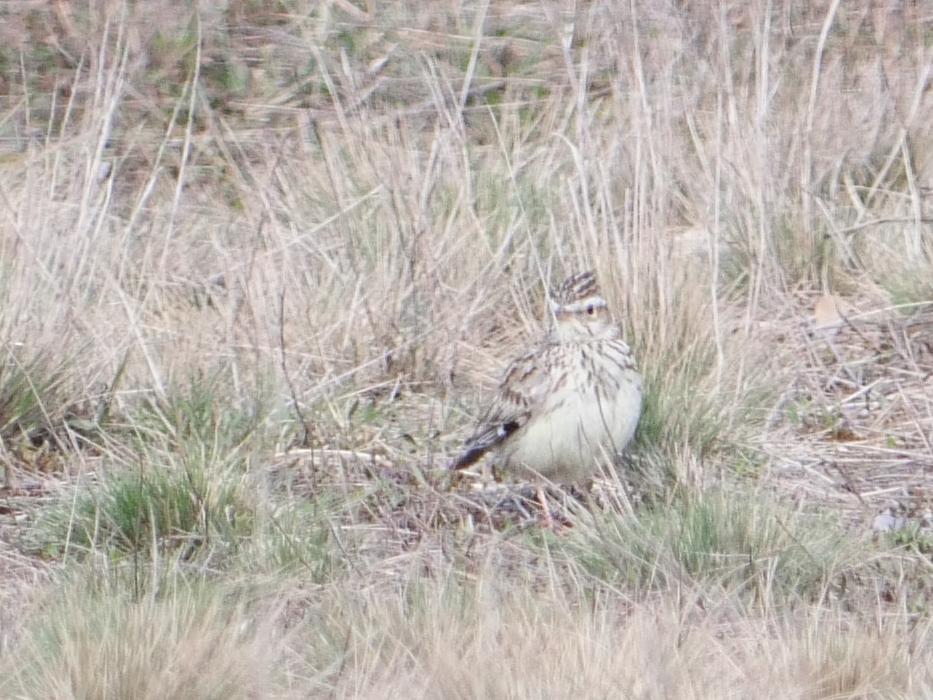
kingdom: Animalia
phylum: Chordata
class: Aves
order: Passeriformes
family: Alaudidae
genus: Lullula
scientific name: Lullula arborea
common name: Woodlark
